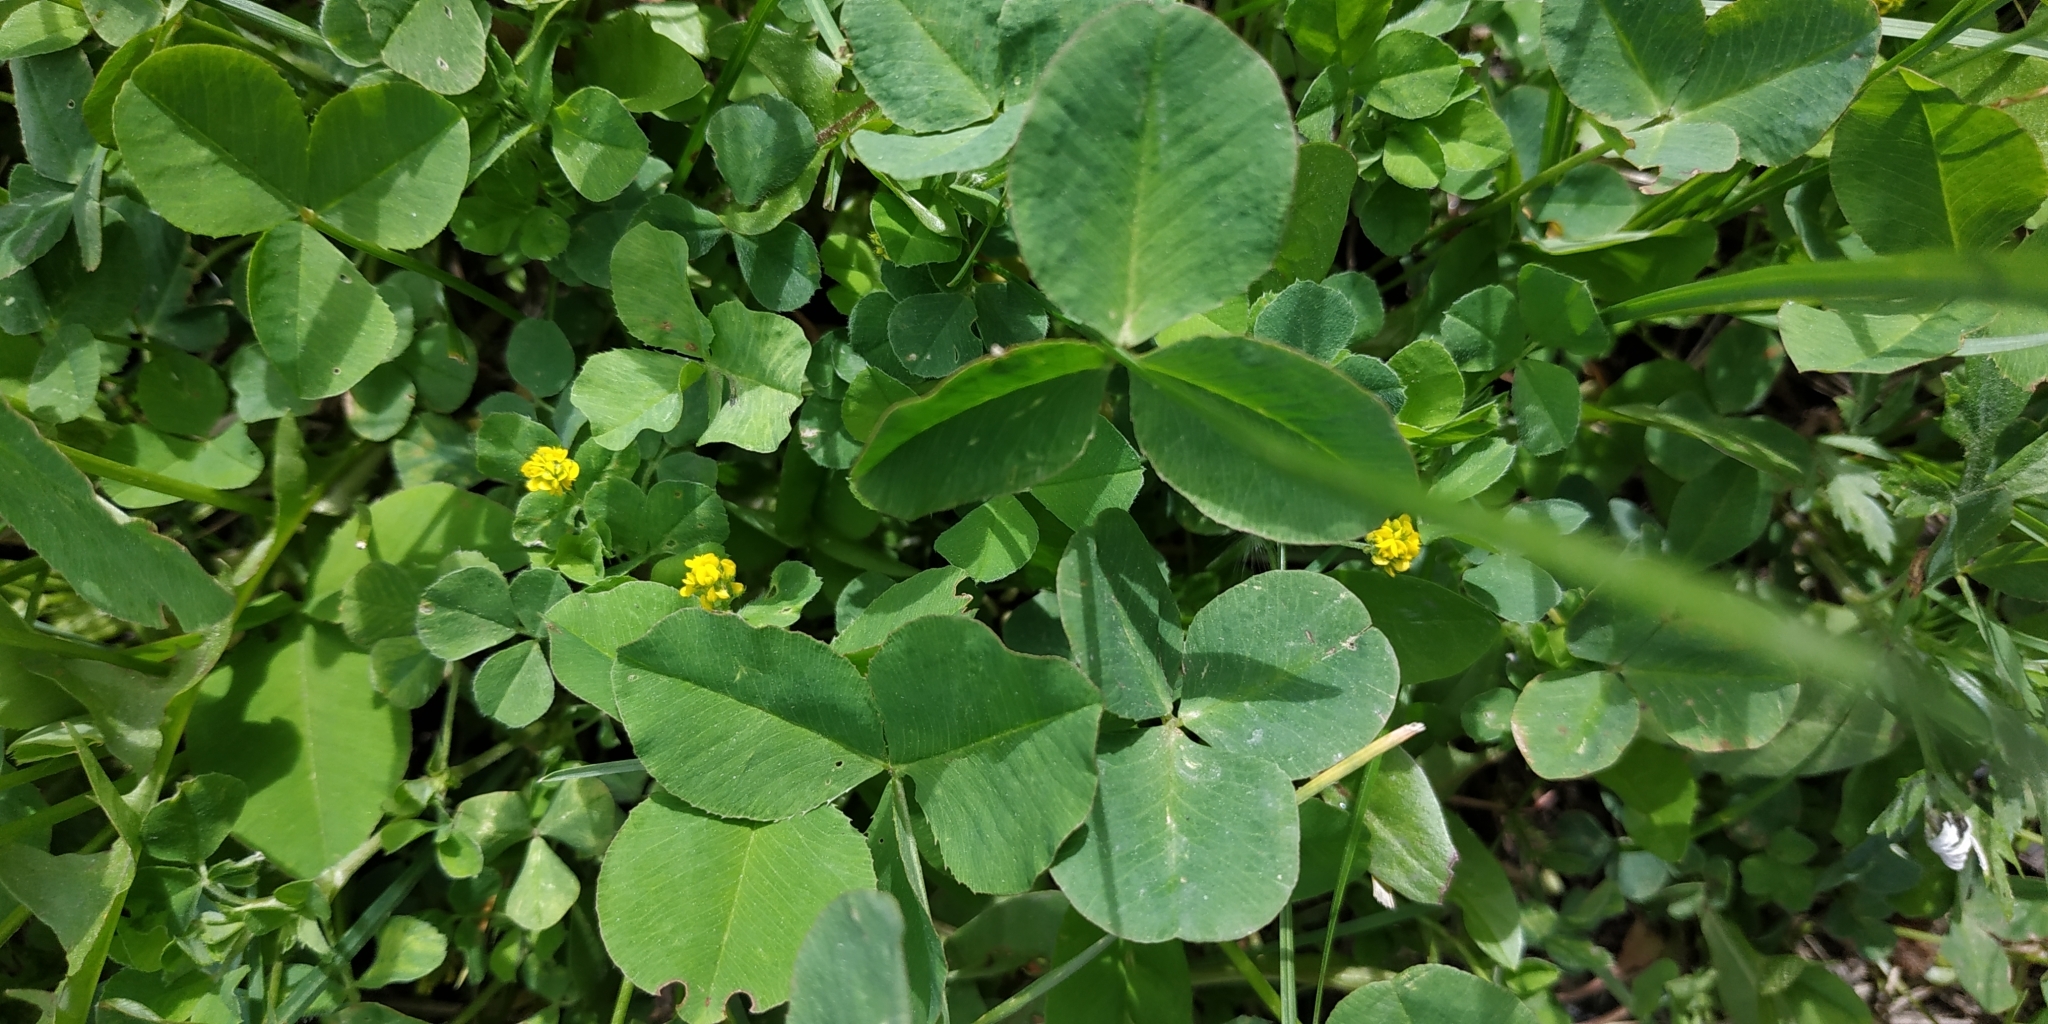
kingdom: Plantae
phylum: Tracheophyta
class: Magnoliopsida
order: Fabales
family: Fabaceae
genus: Medicago
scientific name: Medicago lupulina
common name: Black medick
